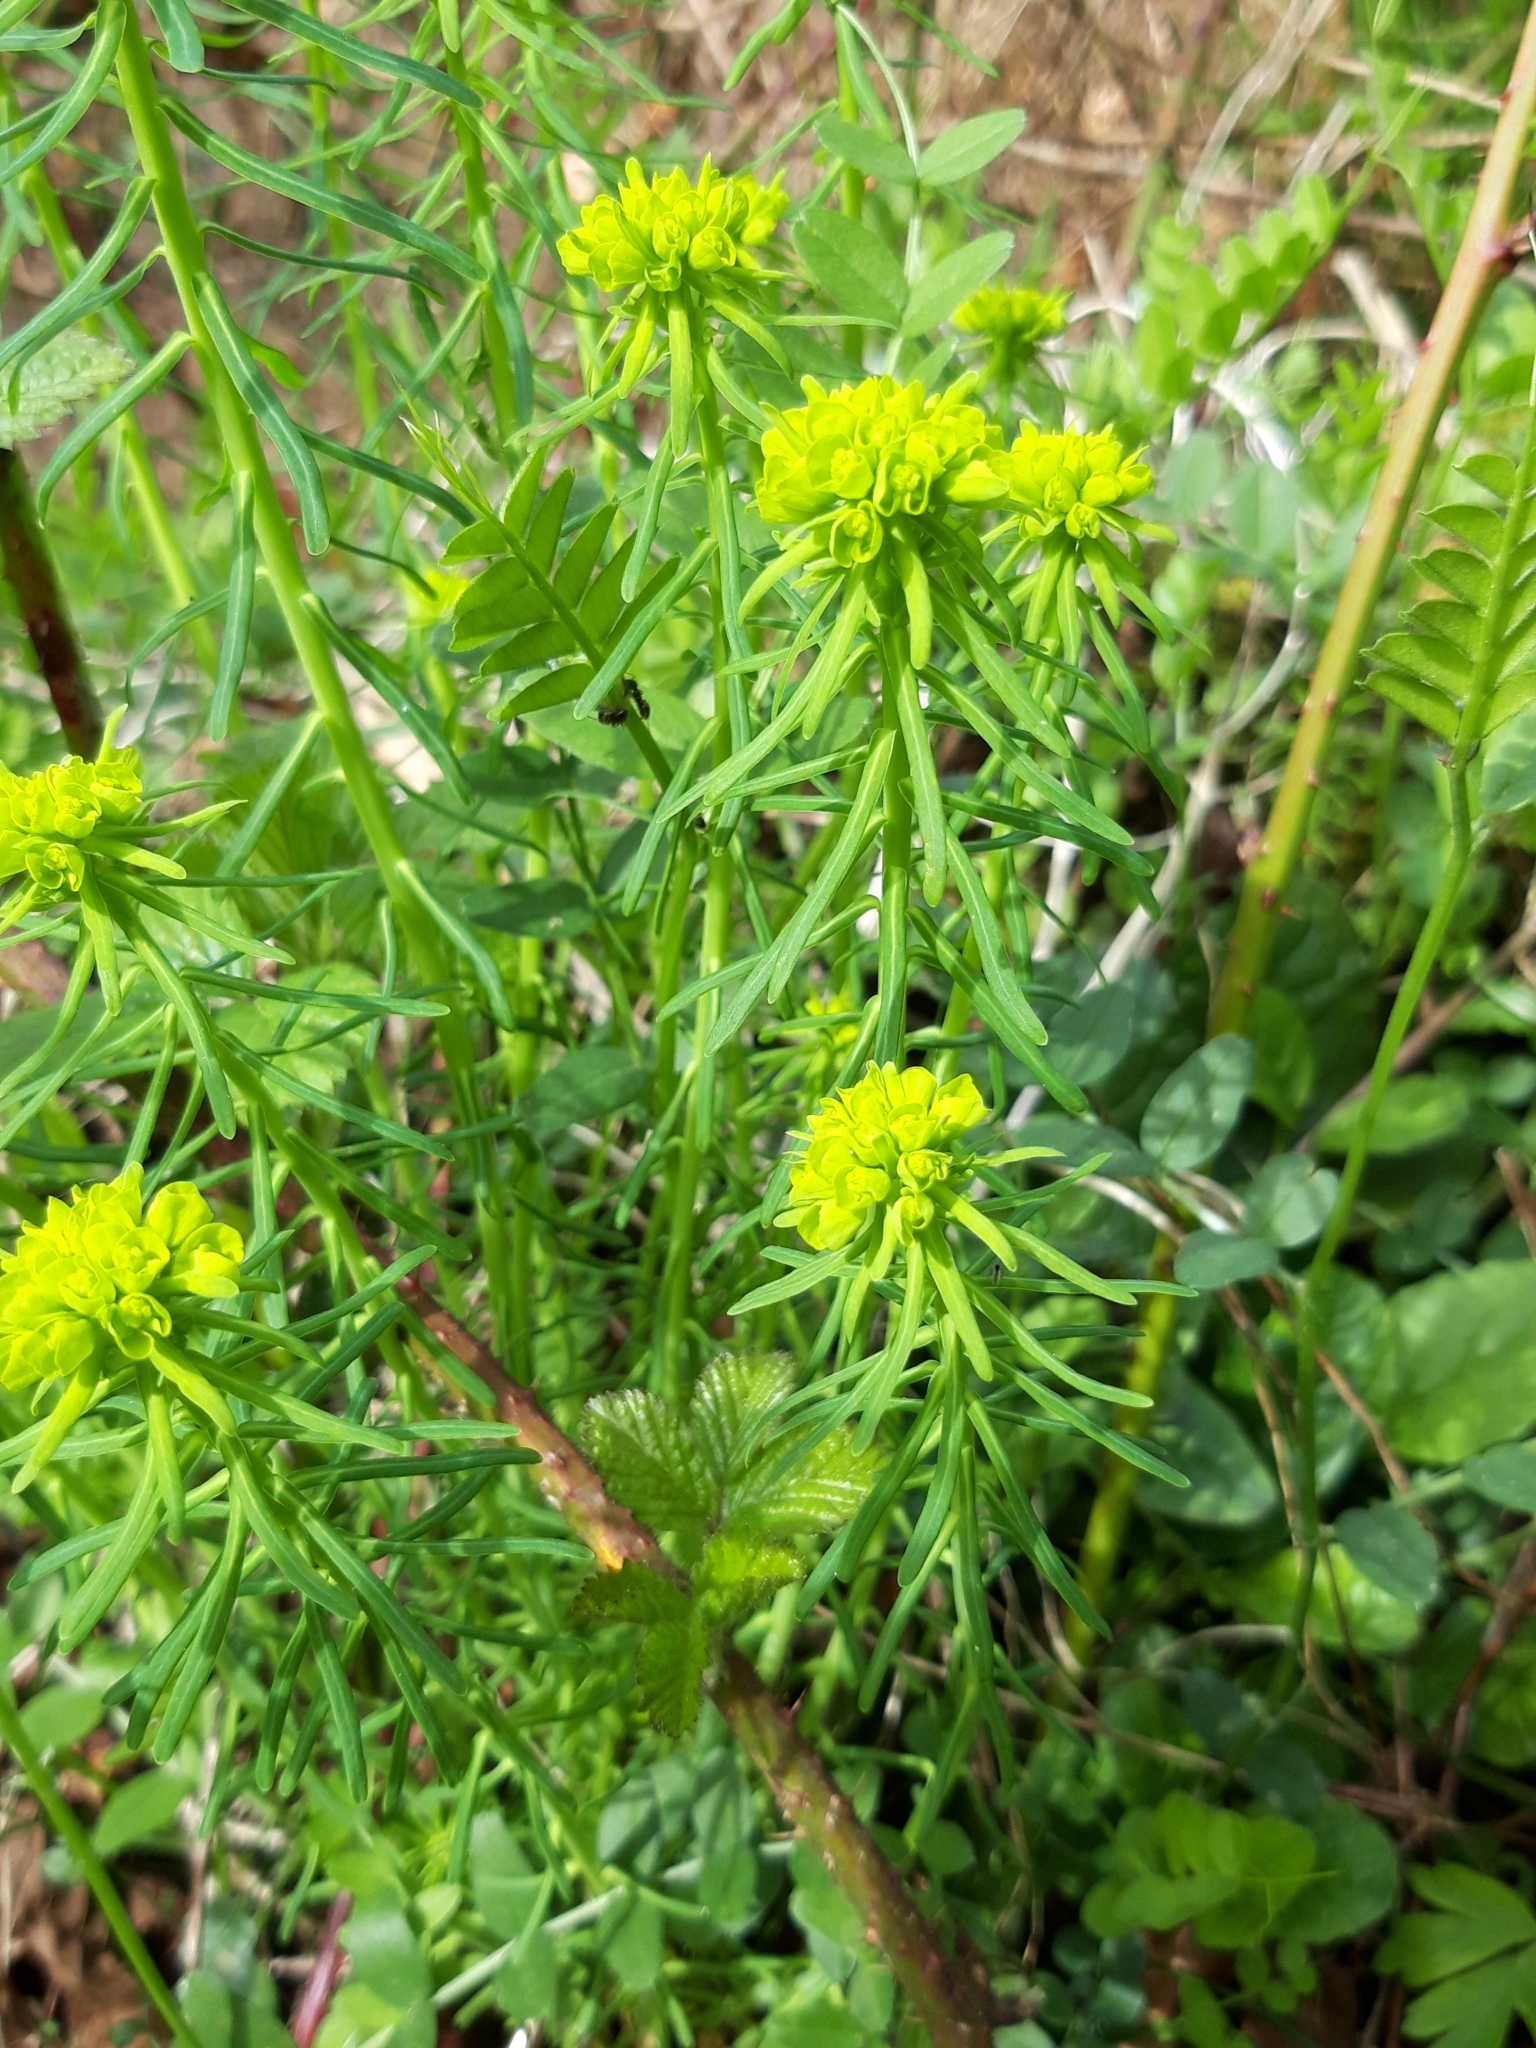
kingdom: Plantae
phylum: Tracheophyta
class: Magnoliopsida
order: Malpighiales
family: Euphorbiaceae
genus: Euphorbia
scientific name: Euphorbia cyparissias
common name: Cypress spurge
